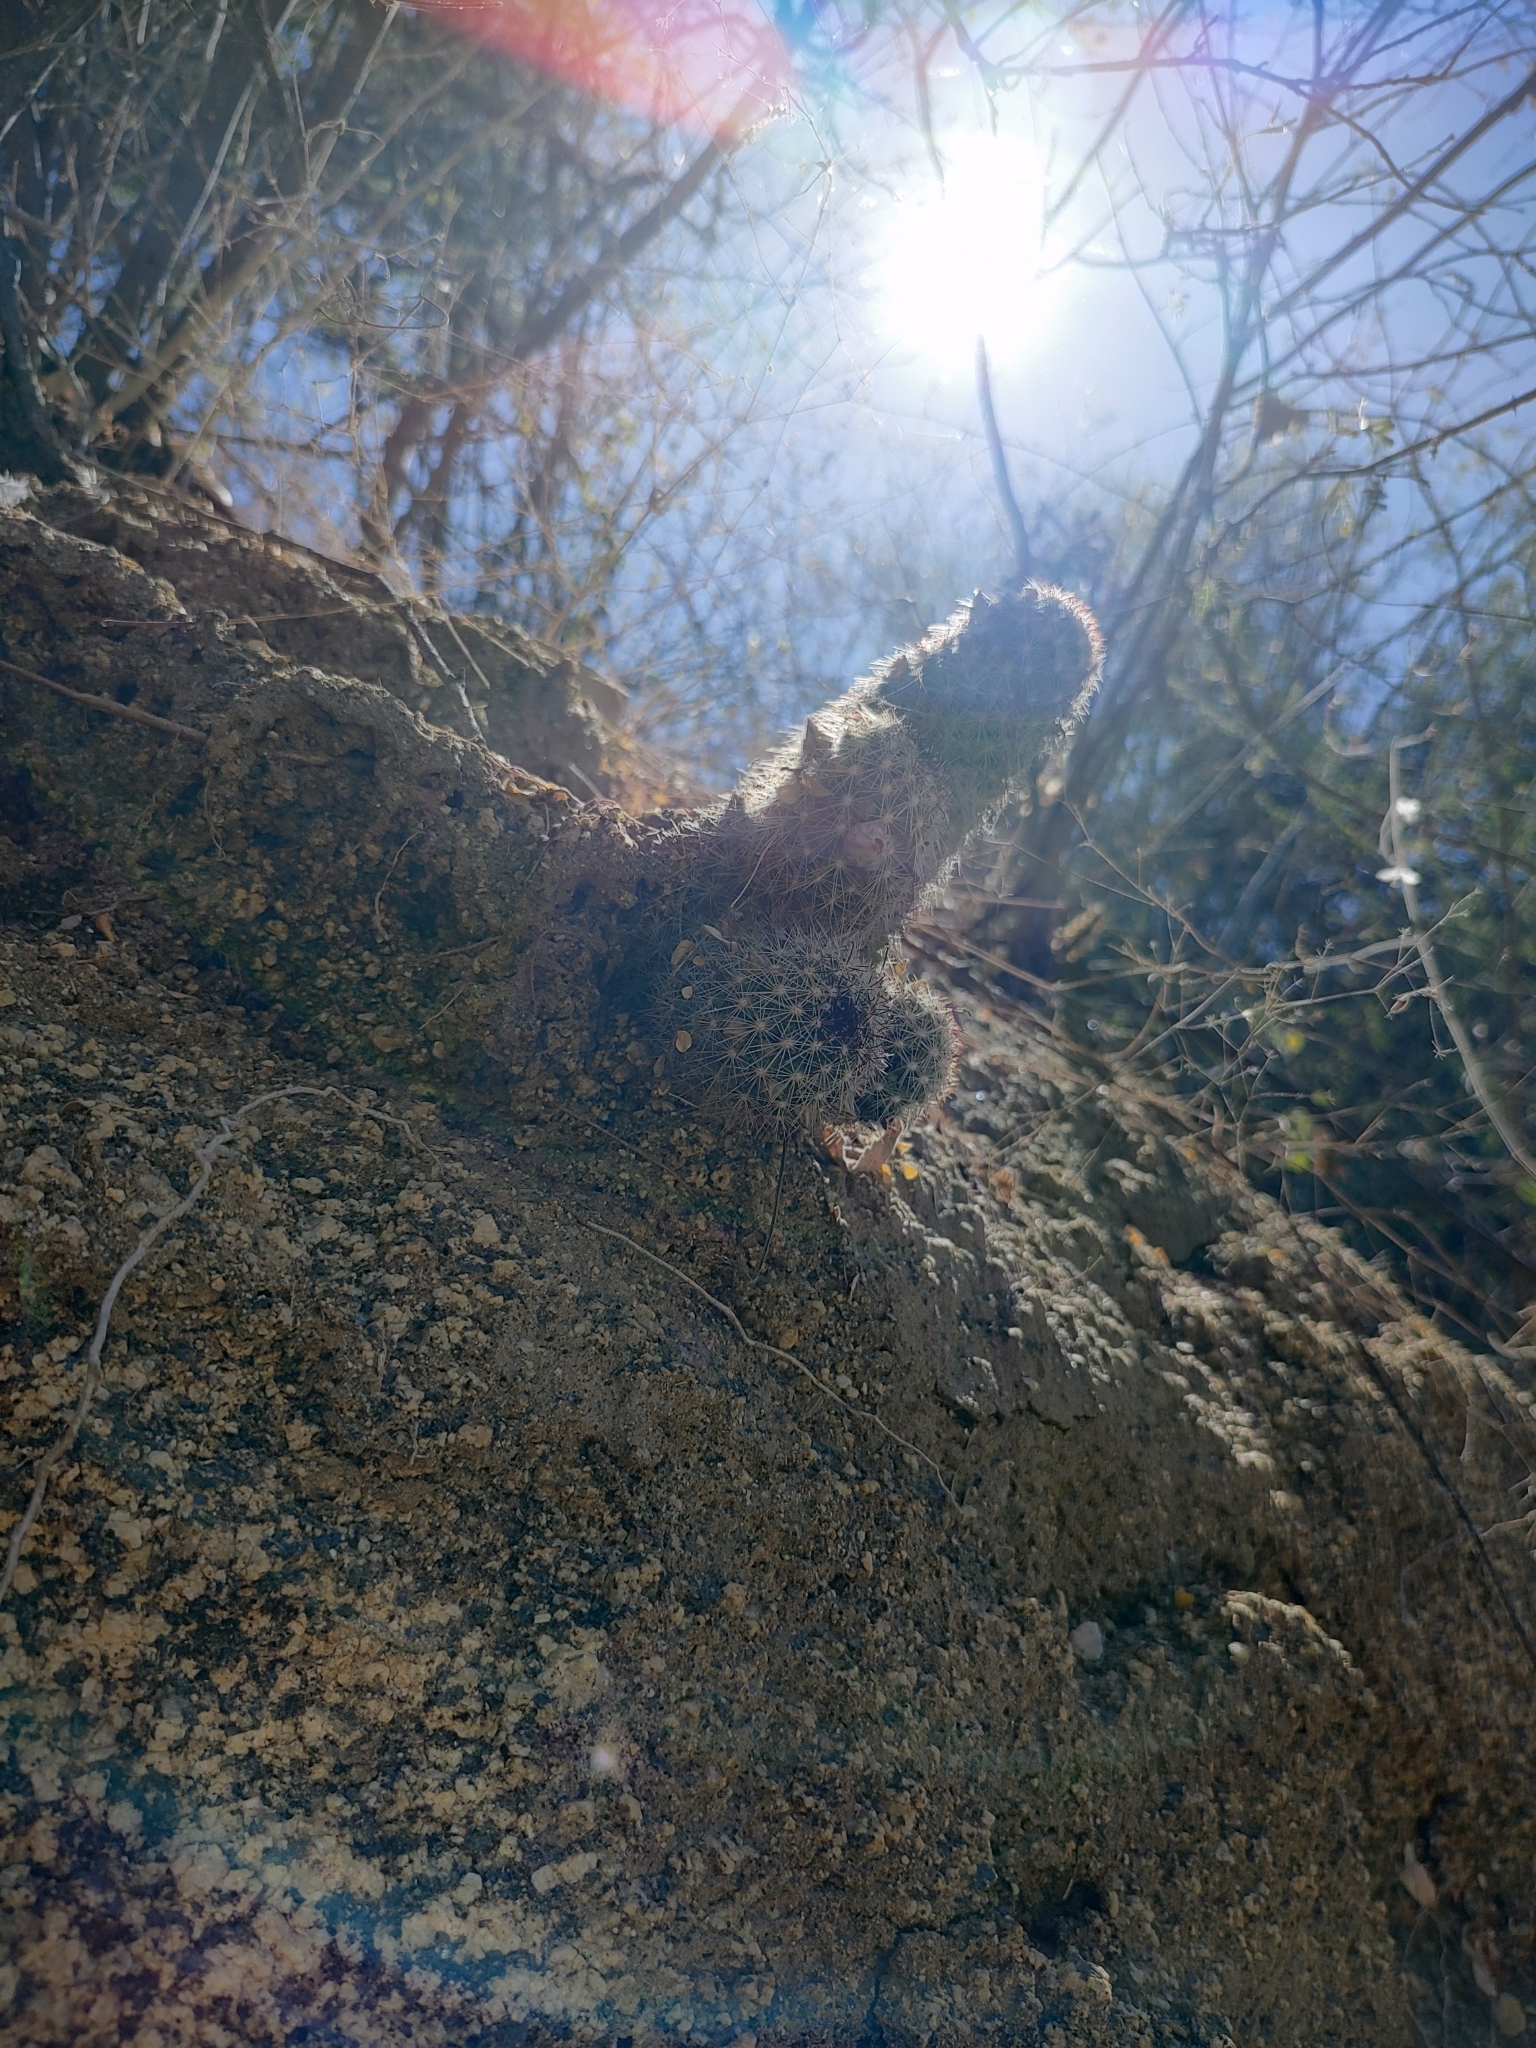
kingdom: Plantae
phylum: Tracheophyta
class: Magnoliopsida
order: Caryophyllales
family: Cactaceae
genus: Cochemiea
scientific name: Cochemiea phitauiana
